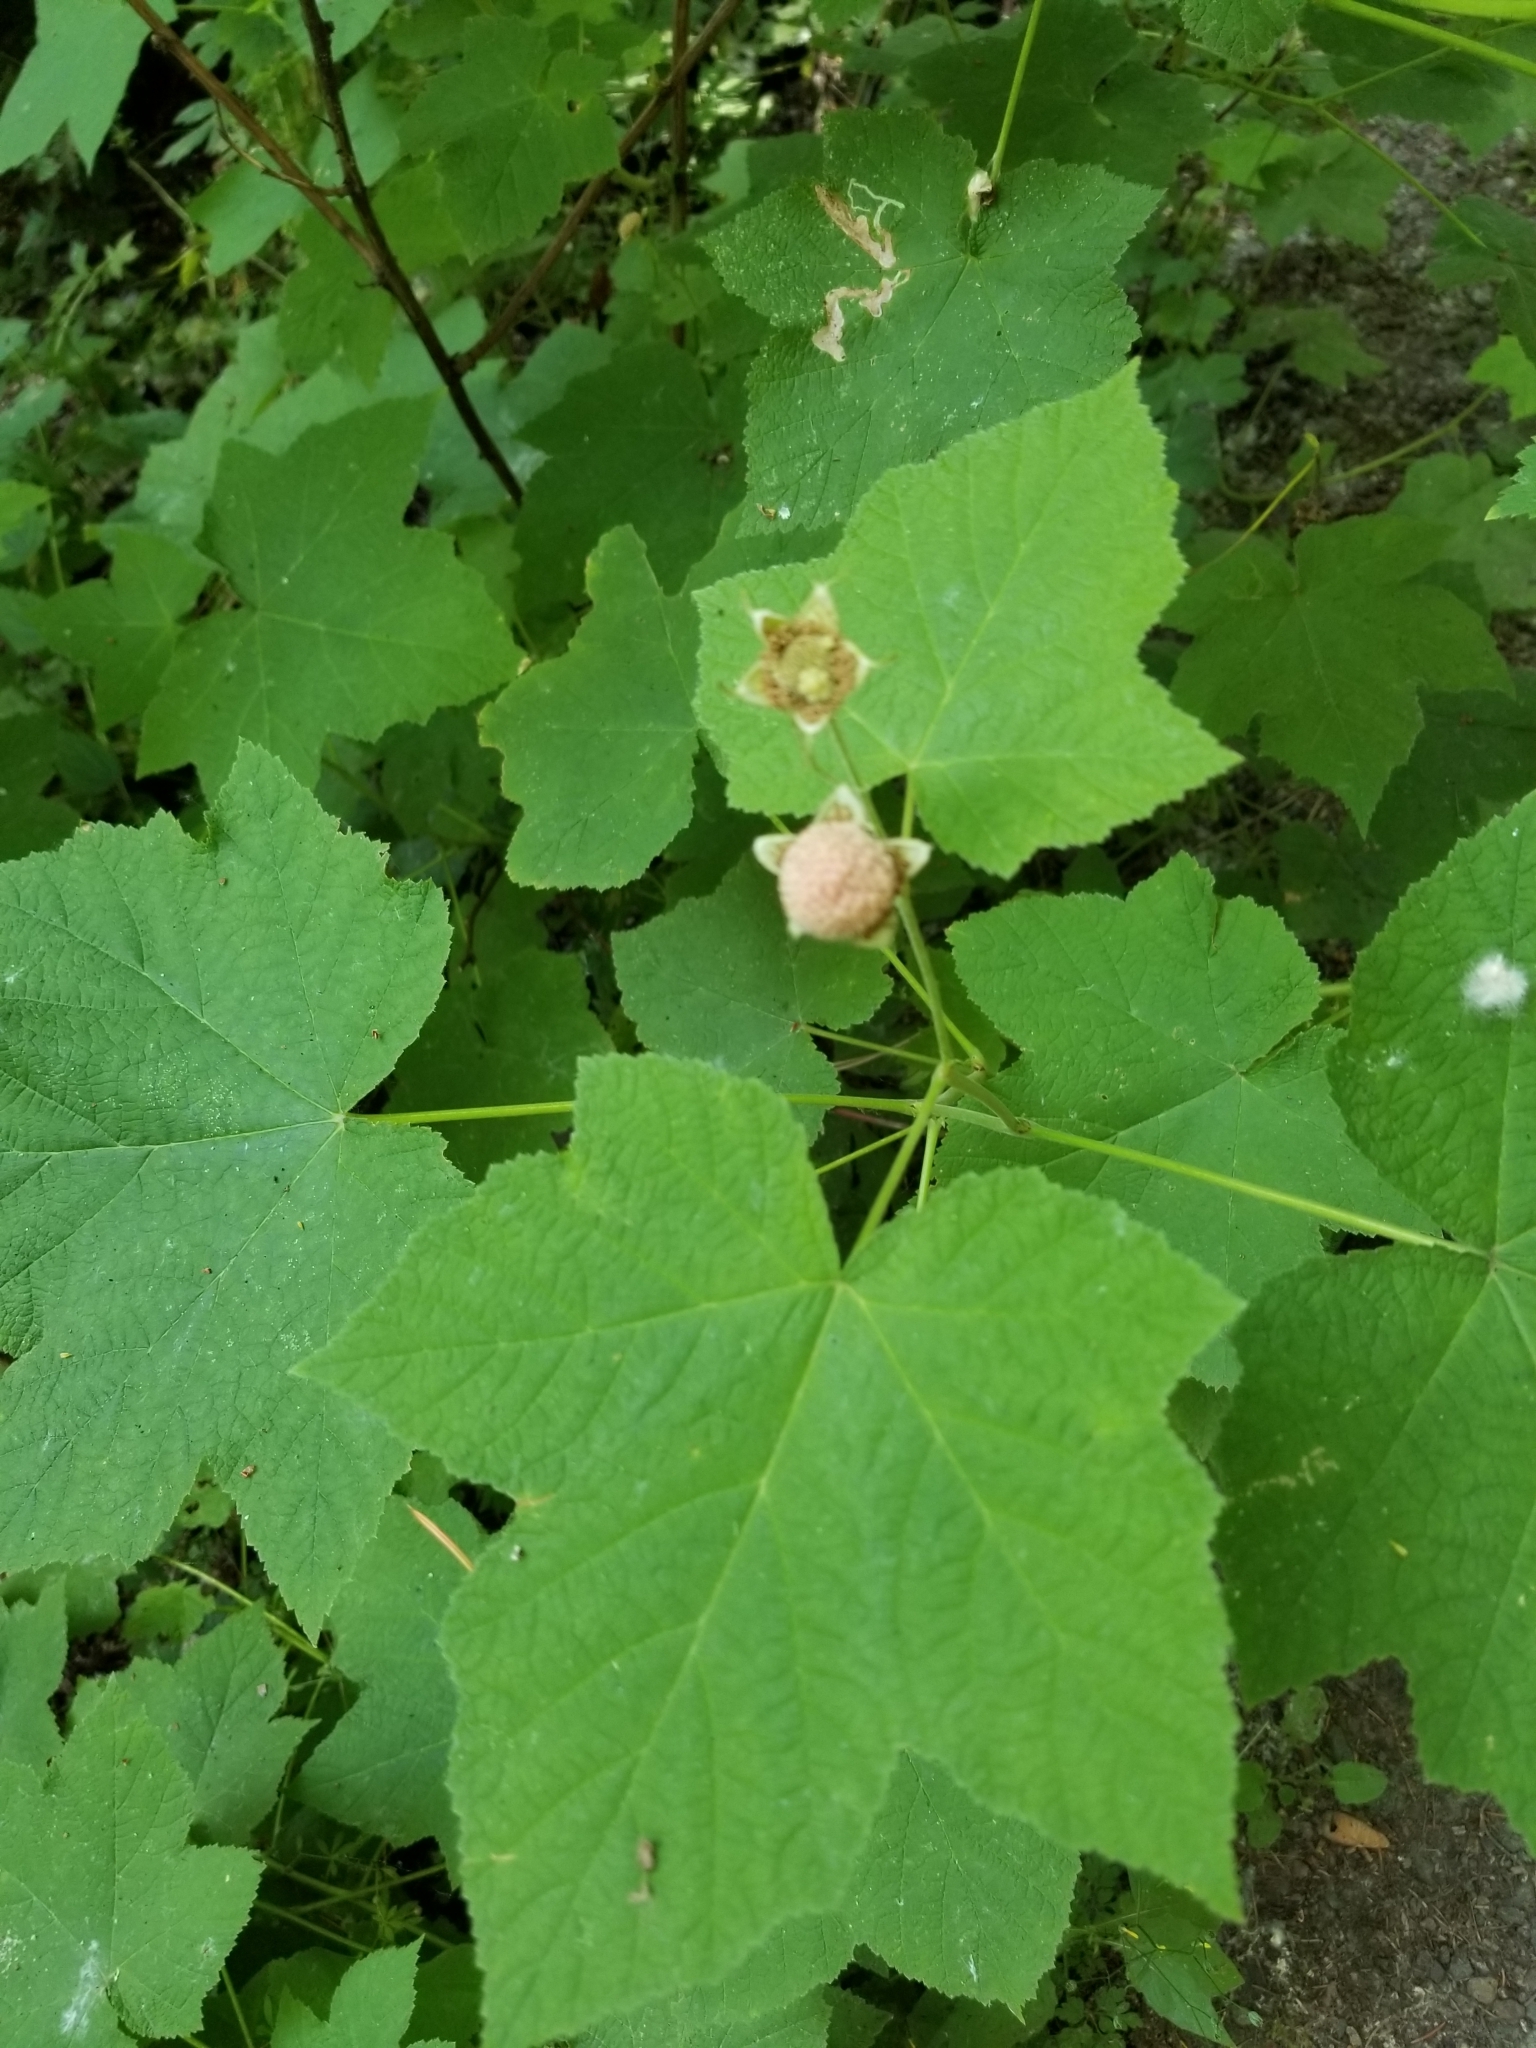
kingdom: Plantae
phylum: Tracheophyta
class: Magnoliopsida
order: Rosales
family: Rosaceae
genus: Rubus
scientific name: Rubus parviflorus
